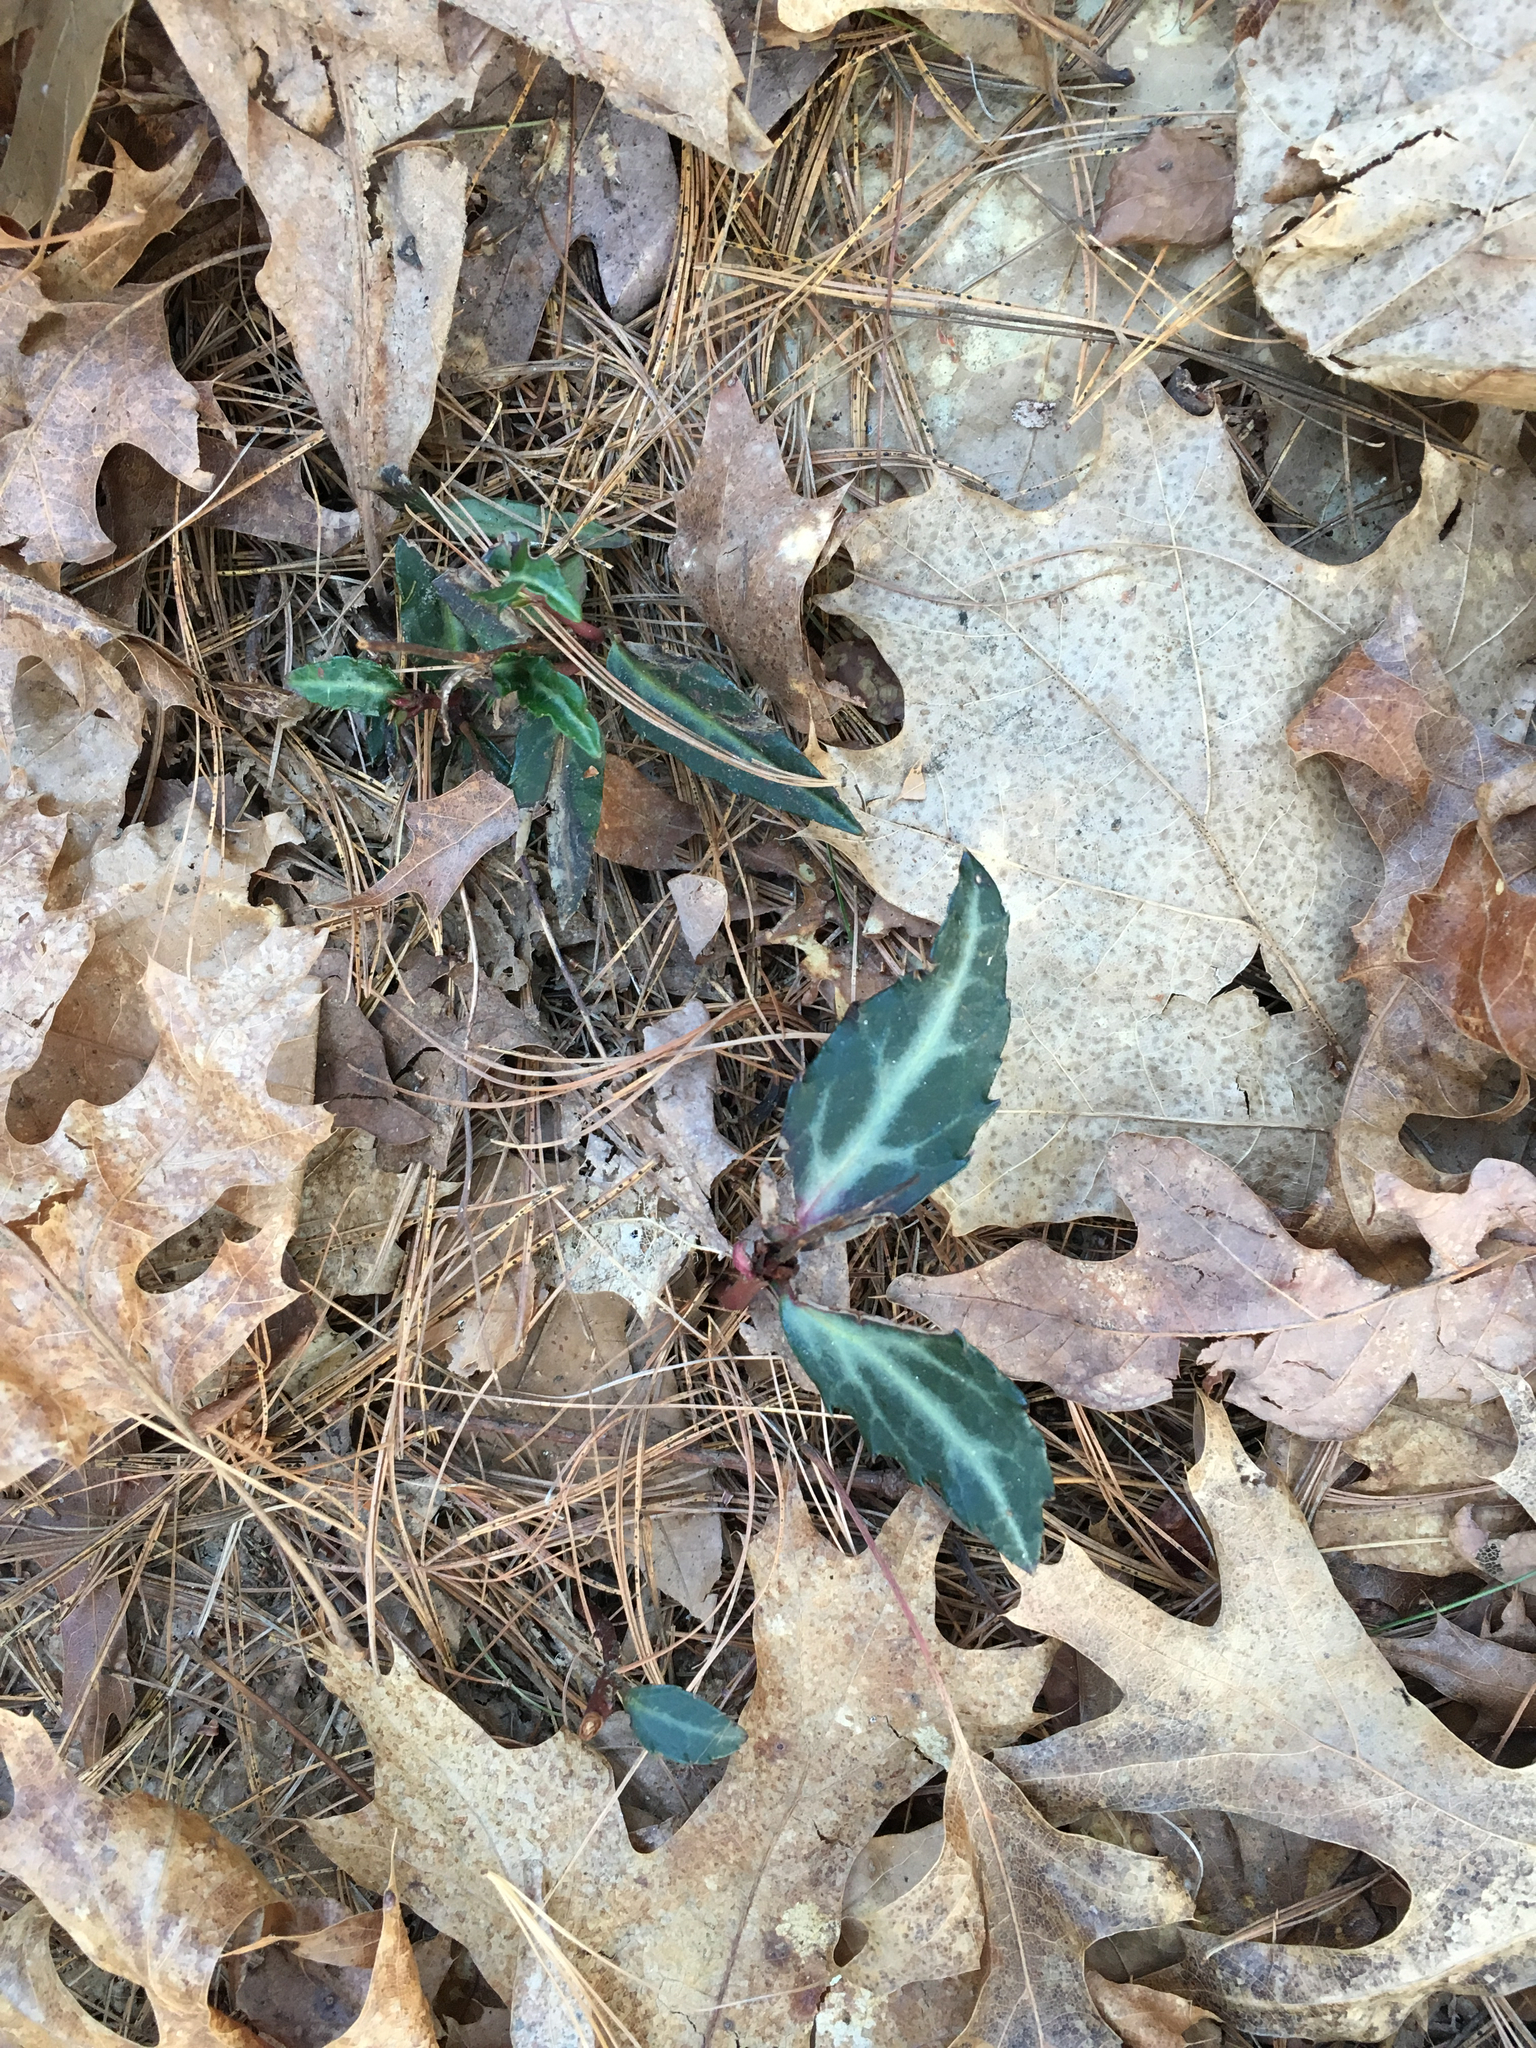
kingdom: Plantae
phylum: Tracheophyta
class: Magnoliopsida
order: Ericales
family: Ericaceae
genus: Chimaphila
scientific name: Chimaphila maculata
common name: Spotted pipsissewa
